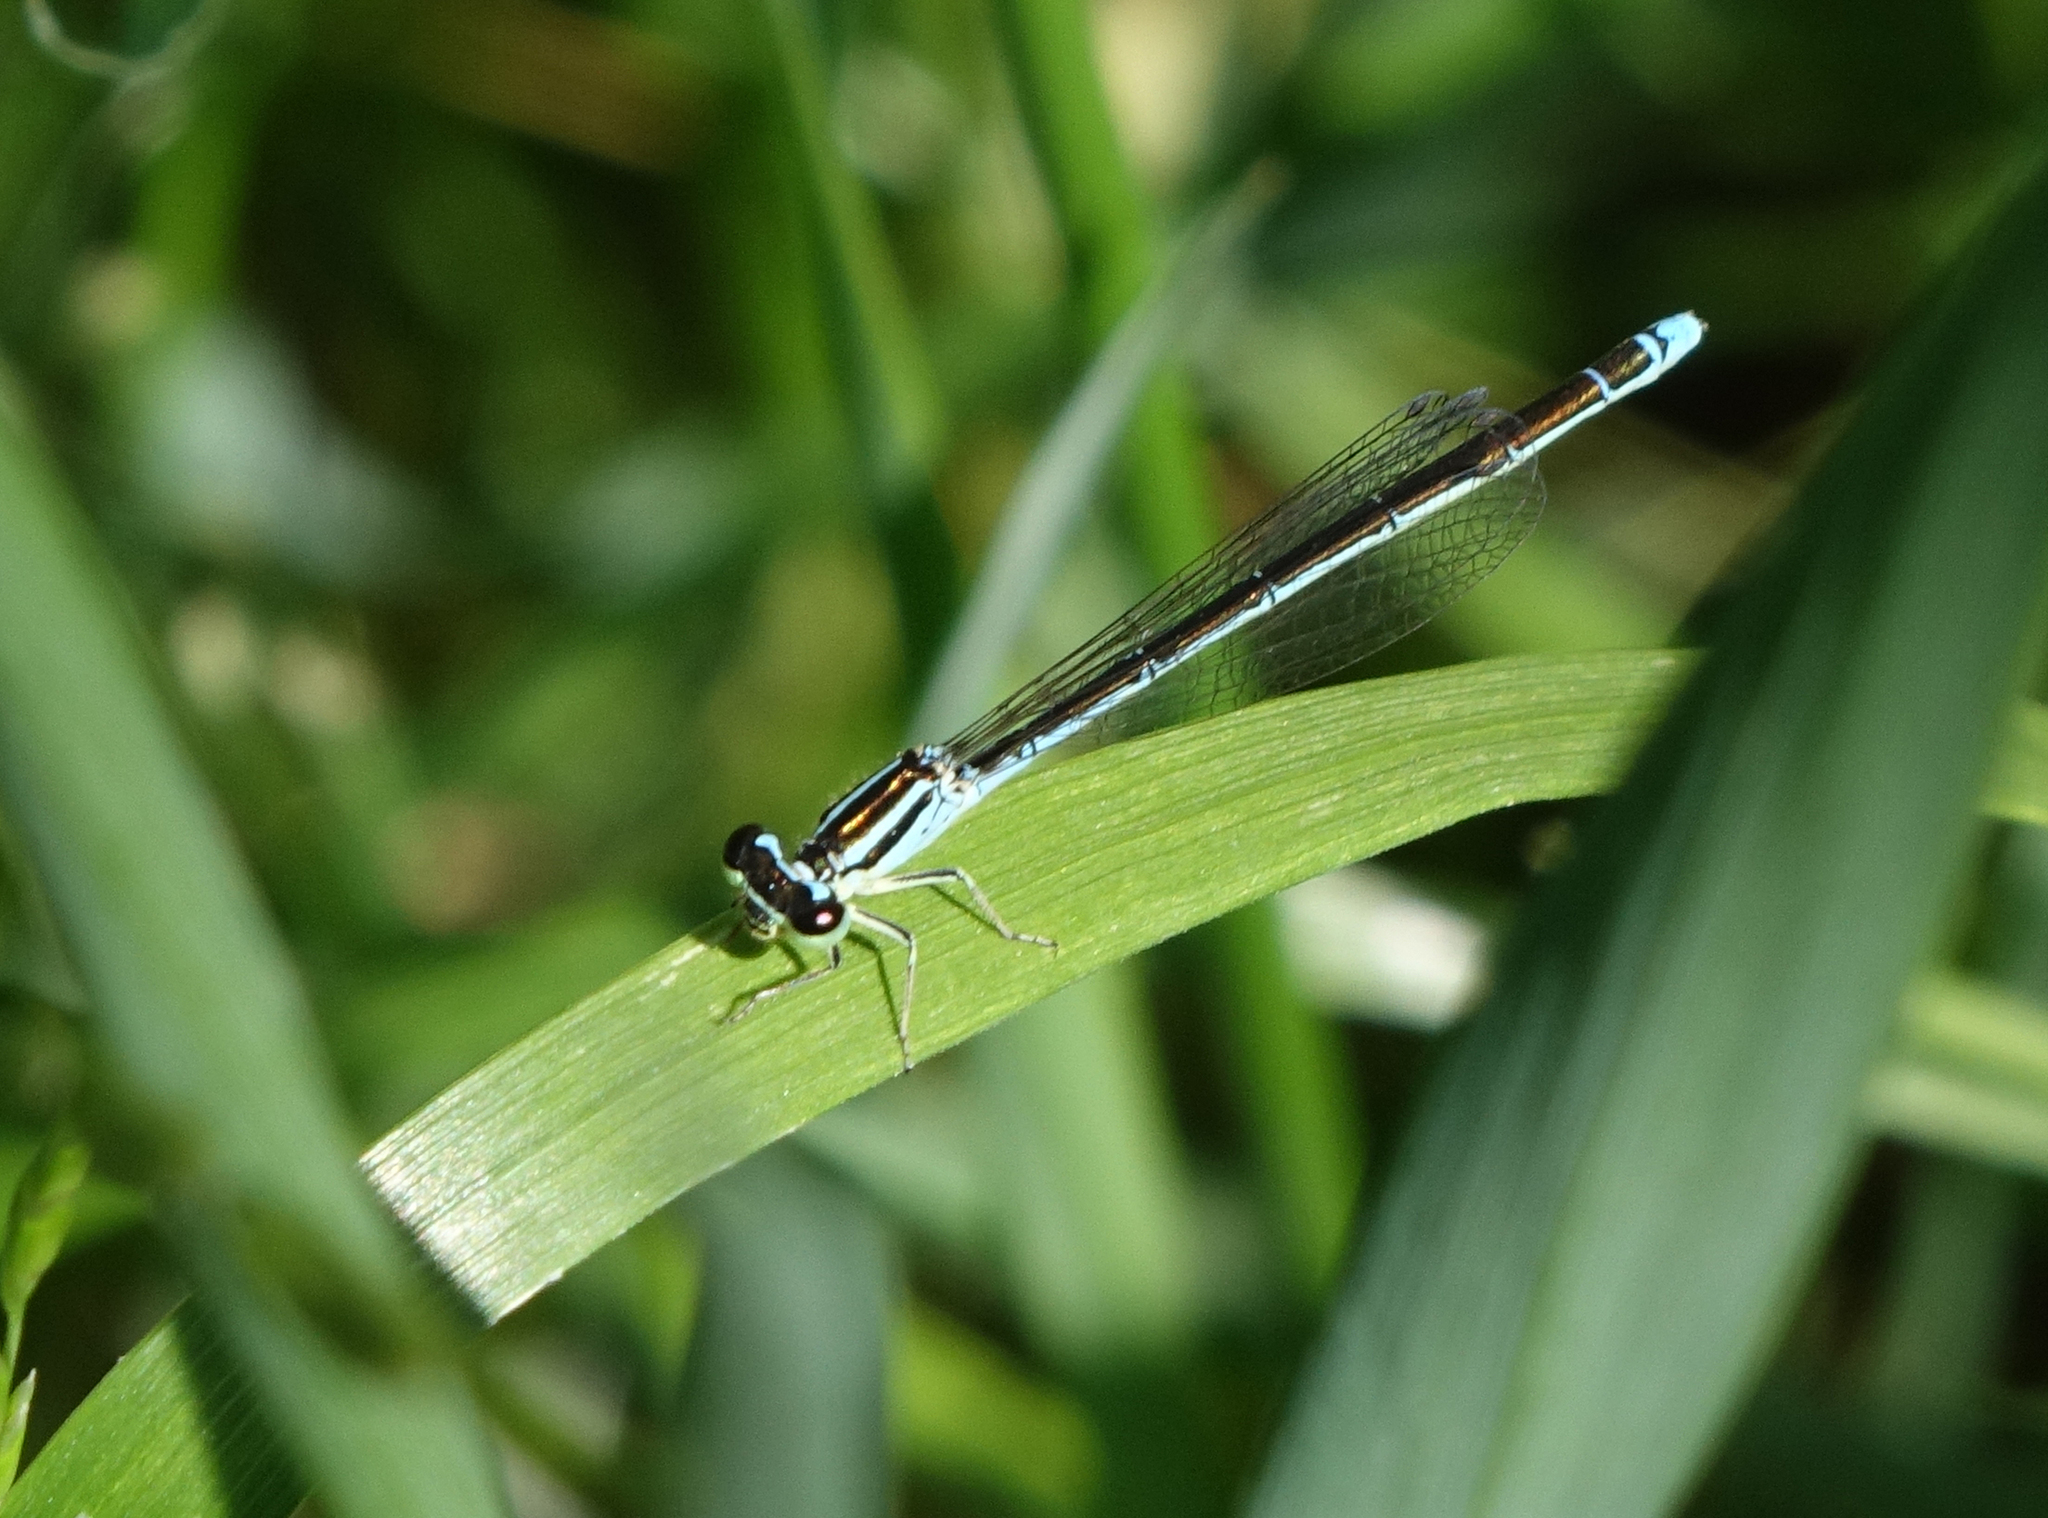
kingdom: Animalia
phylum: Arthropoda
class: Insecta
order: Odonata
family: Coenagrionidae
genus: Coenagrion
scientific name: Coenagrion ecornutum
